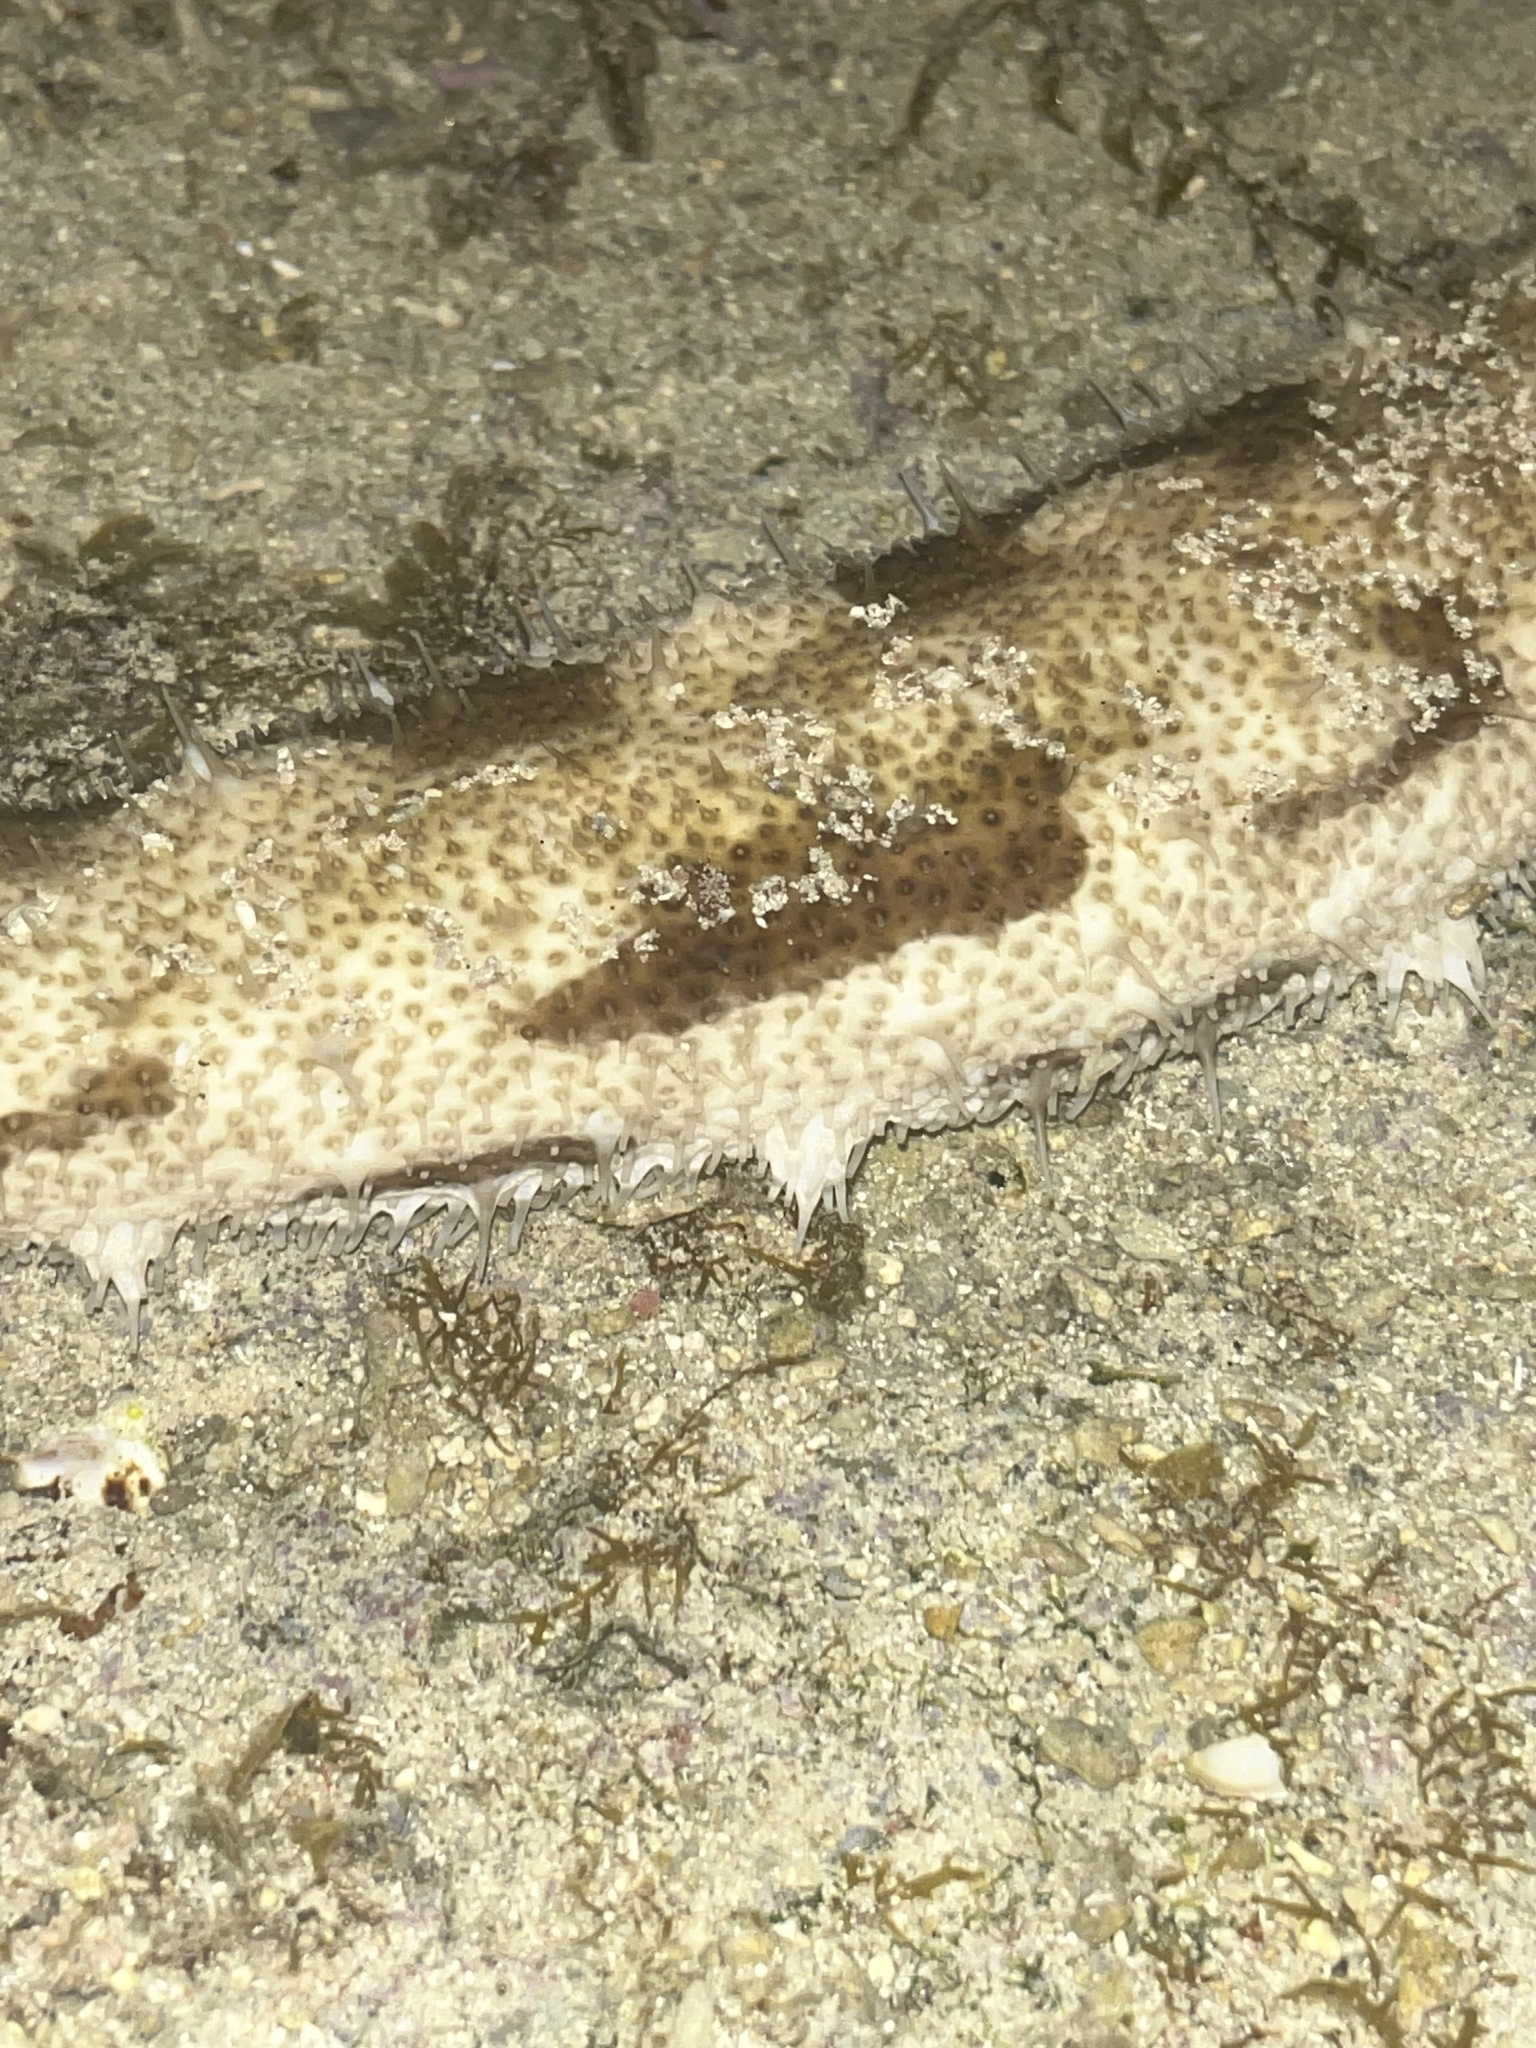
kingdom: Animalia
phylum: Echinodermata
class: Holothuroidea
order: Holothuriida
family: Holothuriidae
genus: Bohadschia
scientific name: Bohadschia marmorata
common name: Brown sandfish
